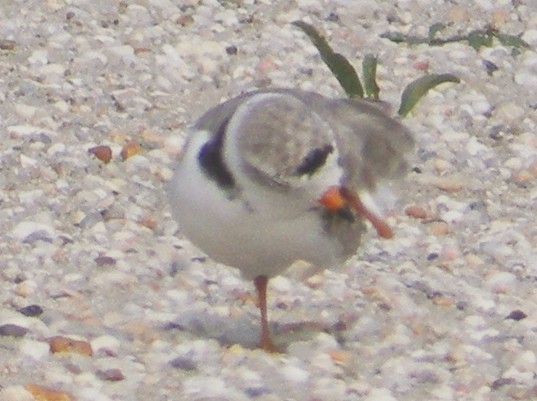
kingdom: Animalia
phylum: Chordata
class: Aves
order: Charadriiformes
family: Charadriidae
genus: Charadrius
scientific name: Charadrius melodus
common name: Piping plover
